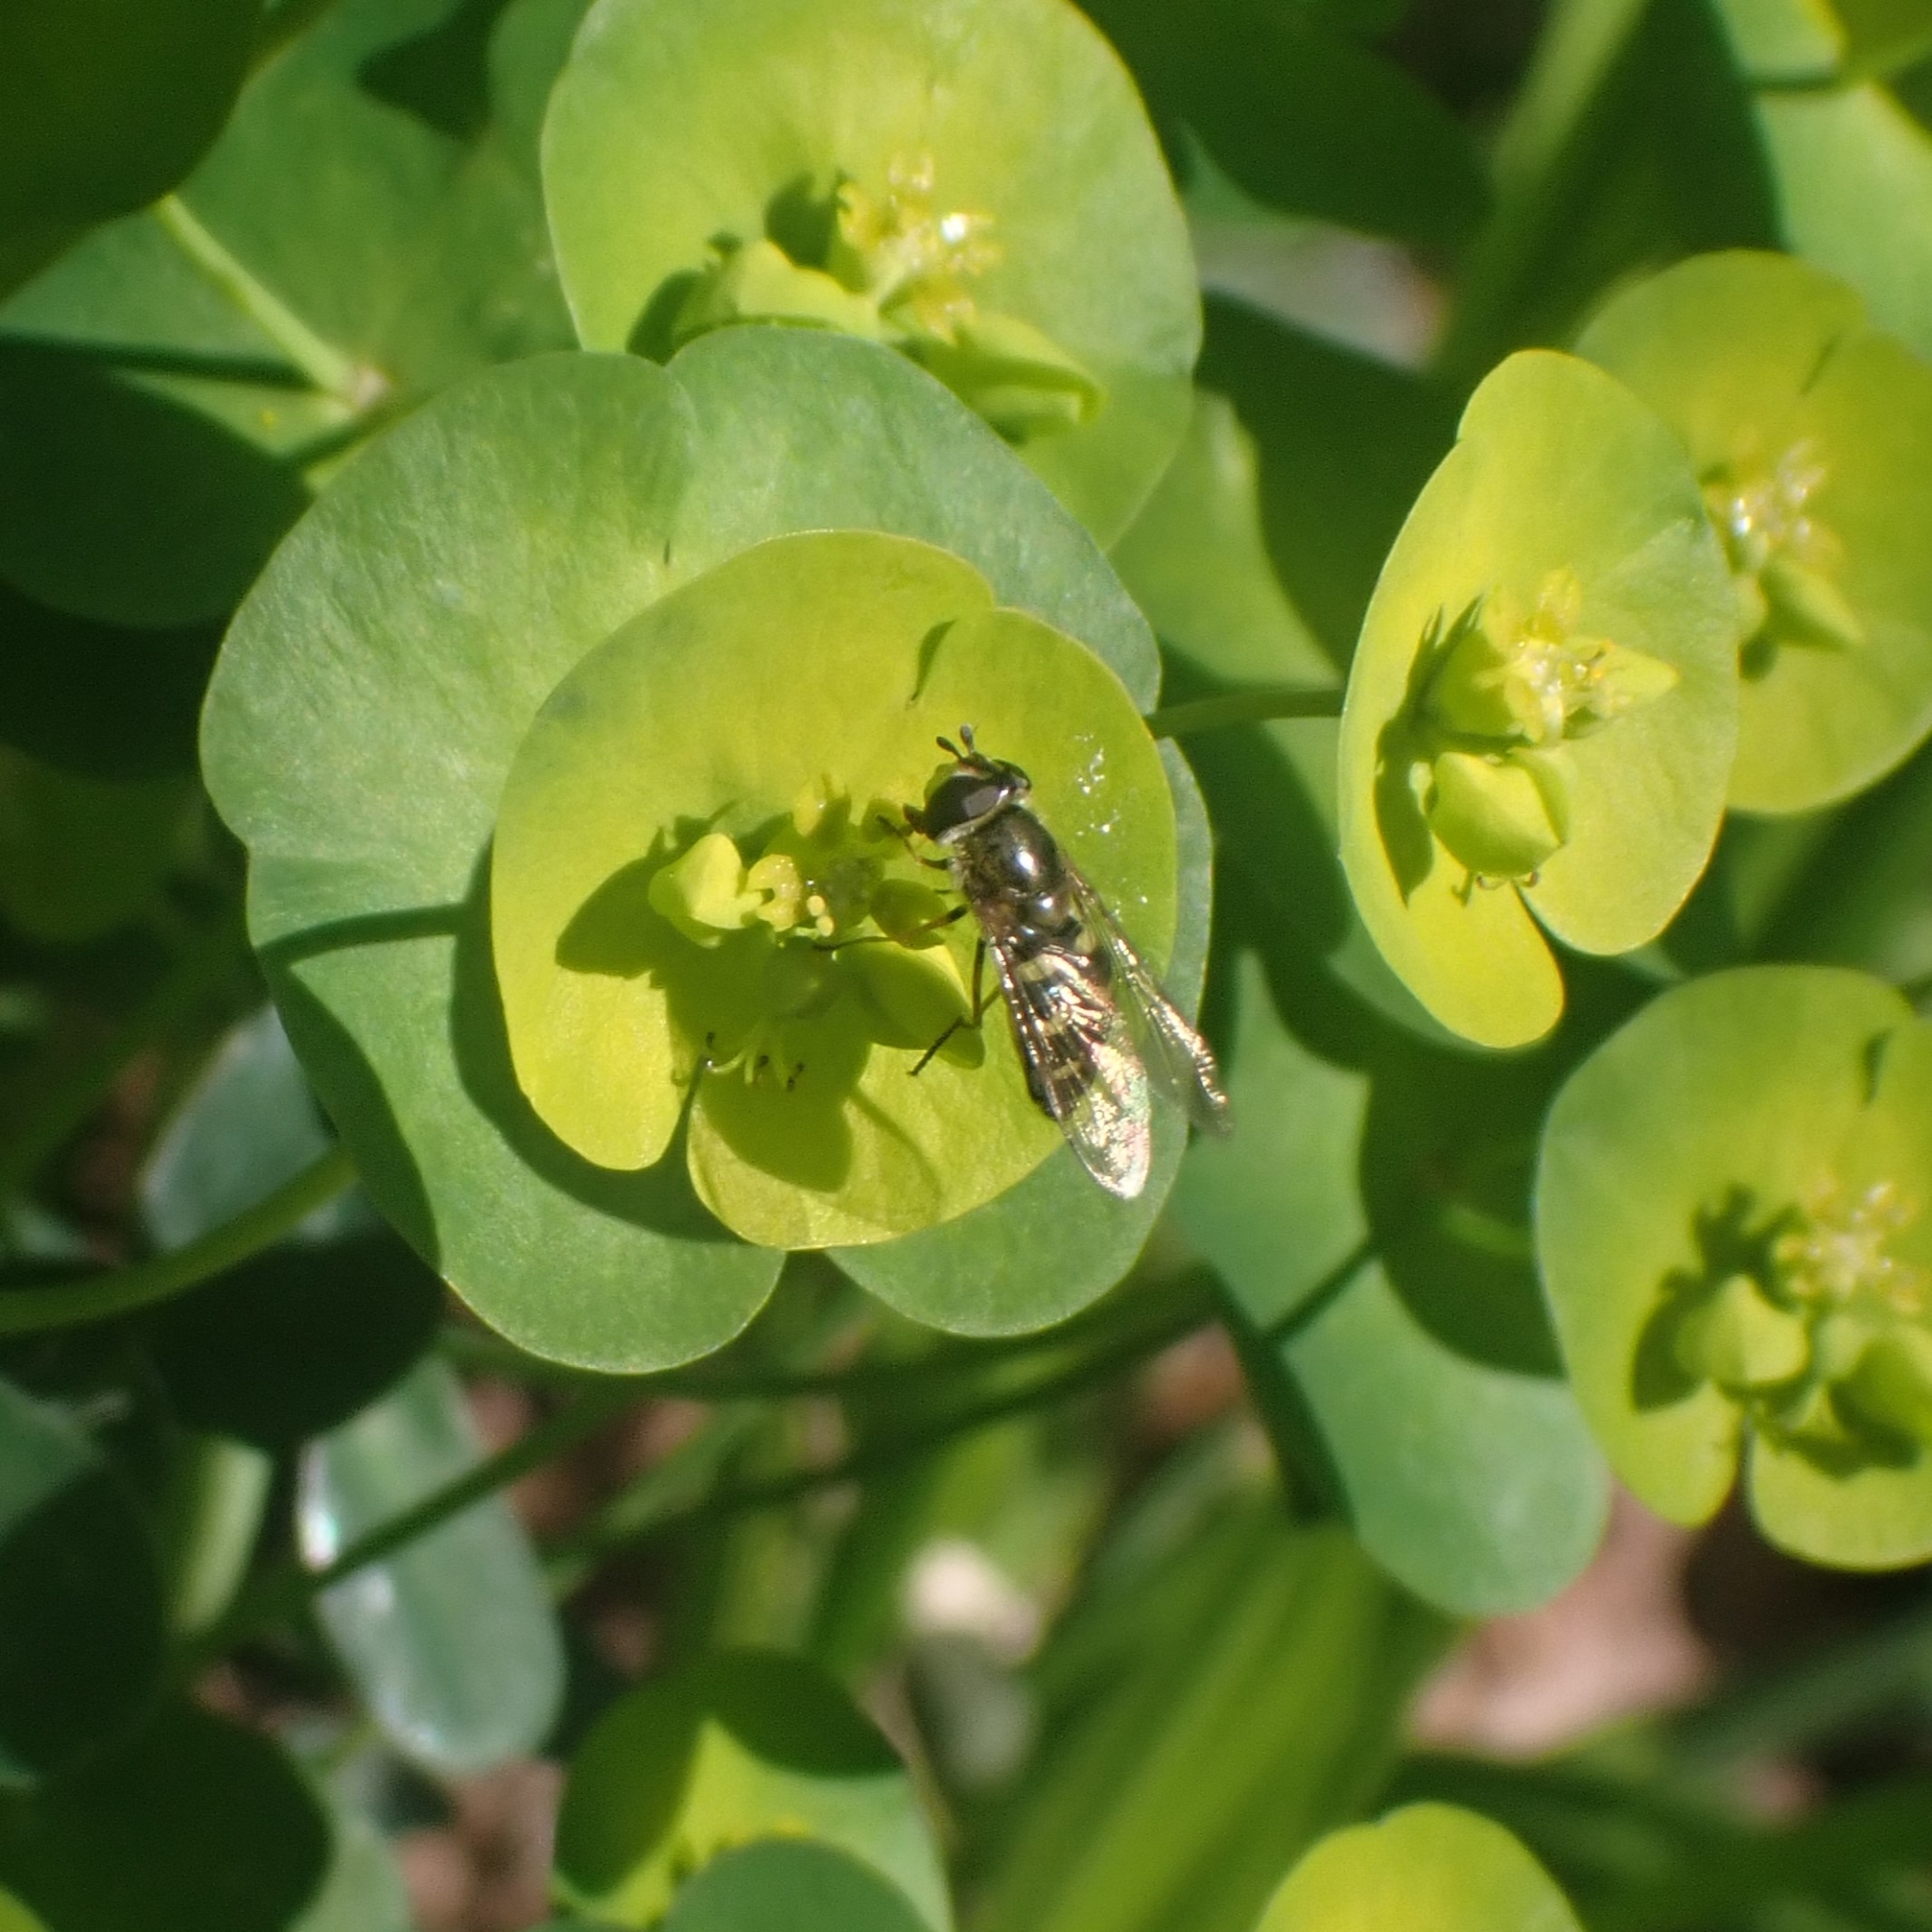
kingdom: Animalia
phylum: Arthropoda
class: Insecta
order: Diptera
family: Syrphidae
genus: Eupeodes
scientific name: Eupeodes luniger
